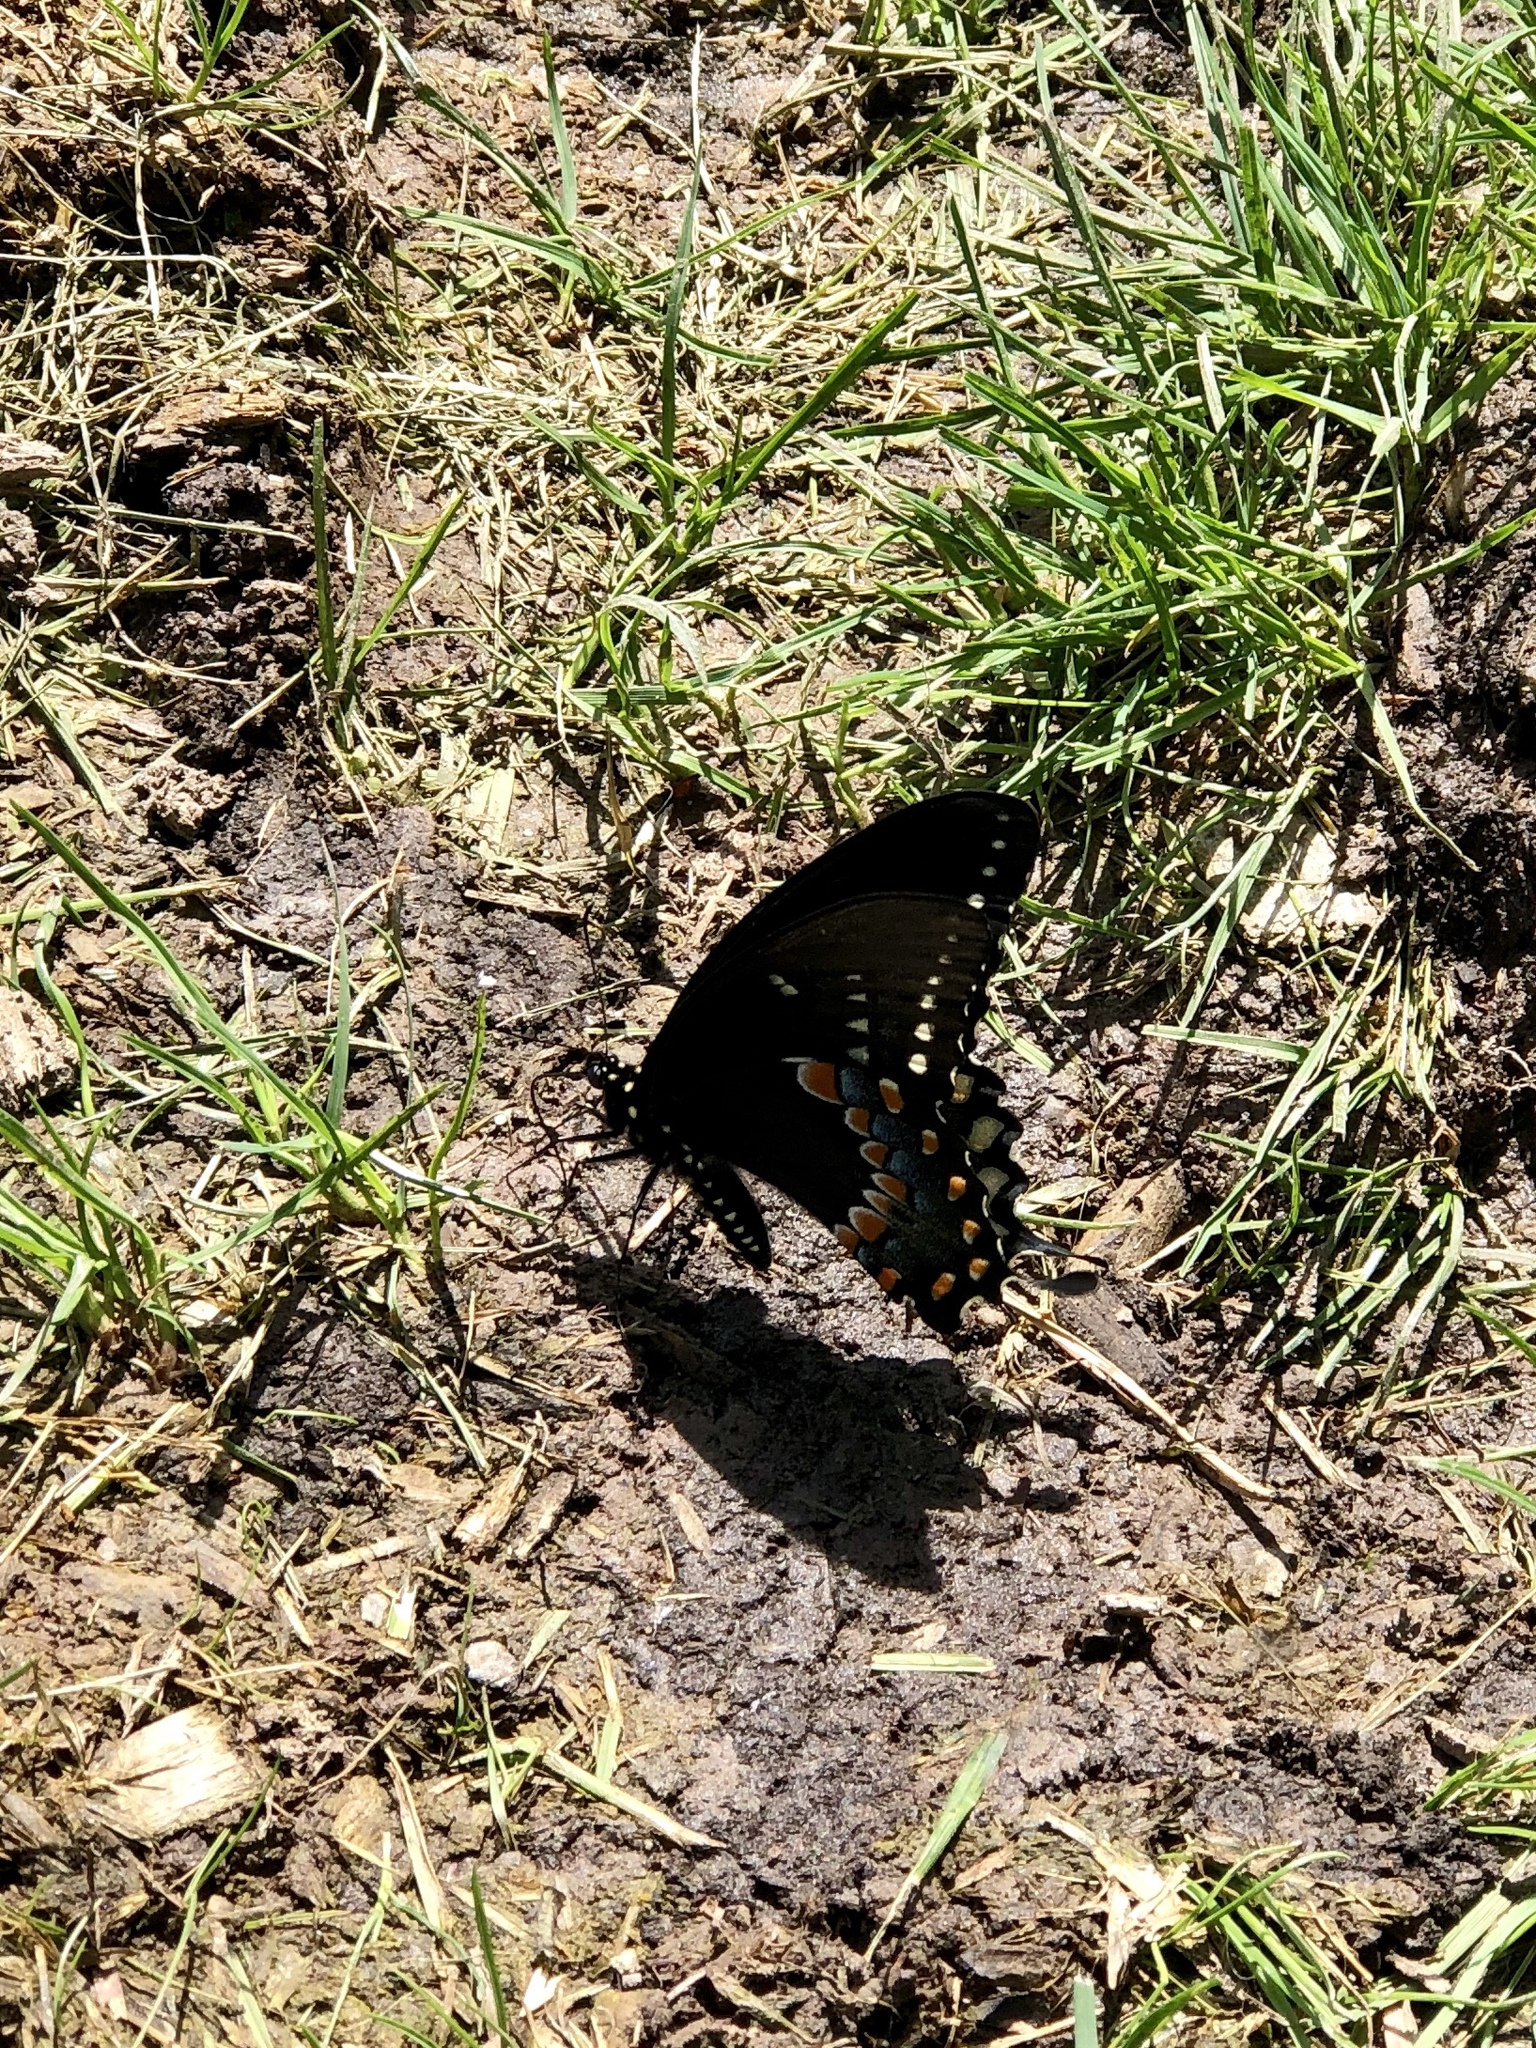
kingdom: Animalia
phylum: Arthropoda
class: Insecta
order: Lepidoptera
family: Papilionidae
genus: Papilio
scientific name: Papilio troilus
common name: Spicebush swallowtail
